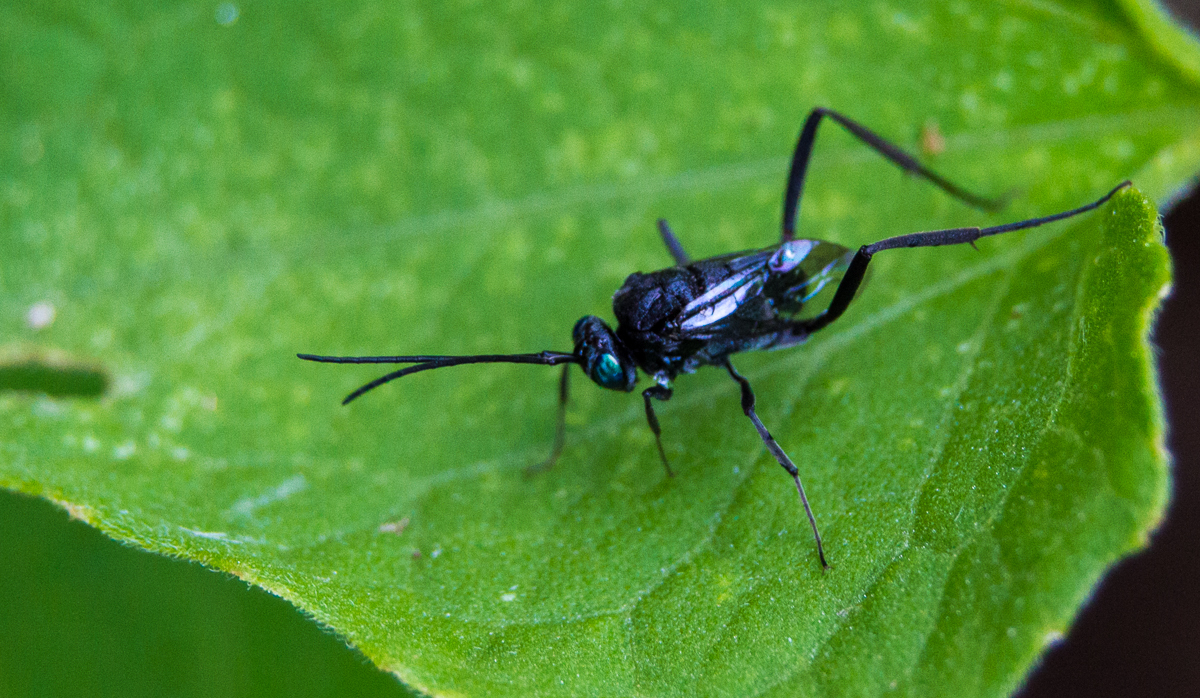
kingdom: Animalia
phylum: Arthropoda
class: Insecta
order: Hymenoptera
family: Evaniidae
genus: Evania
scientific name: Evania appendigaster
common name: Ensign wasp
